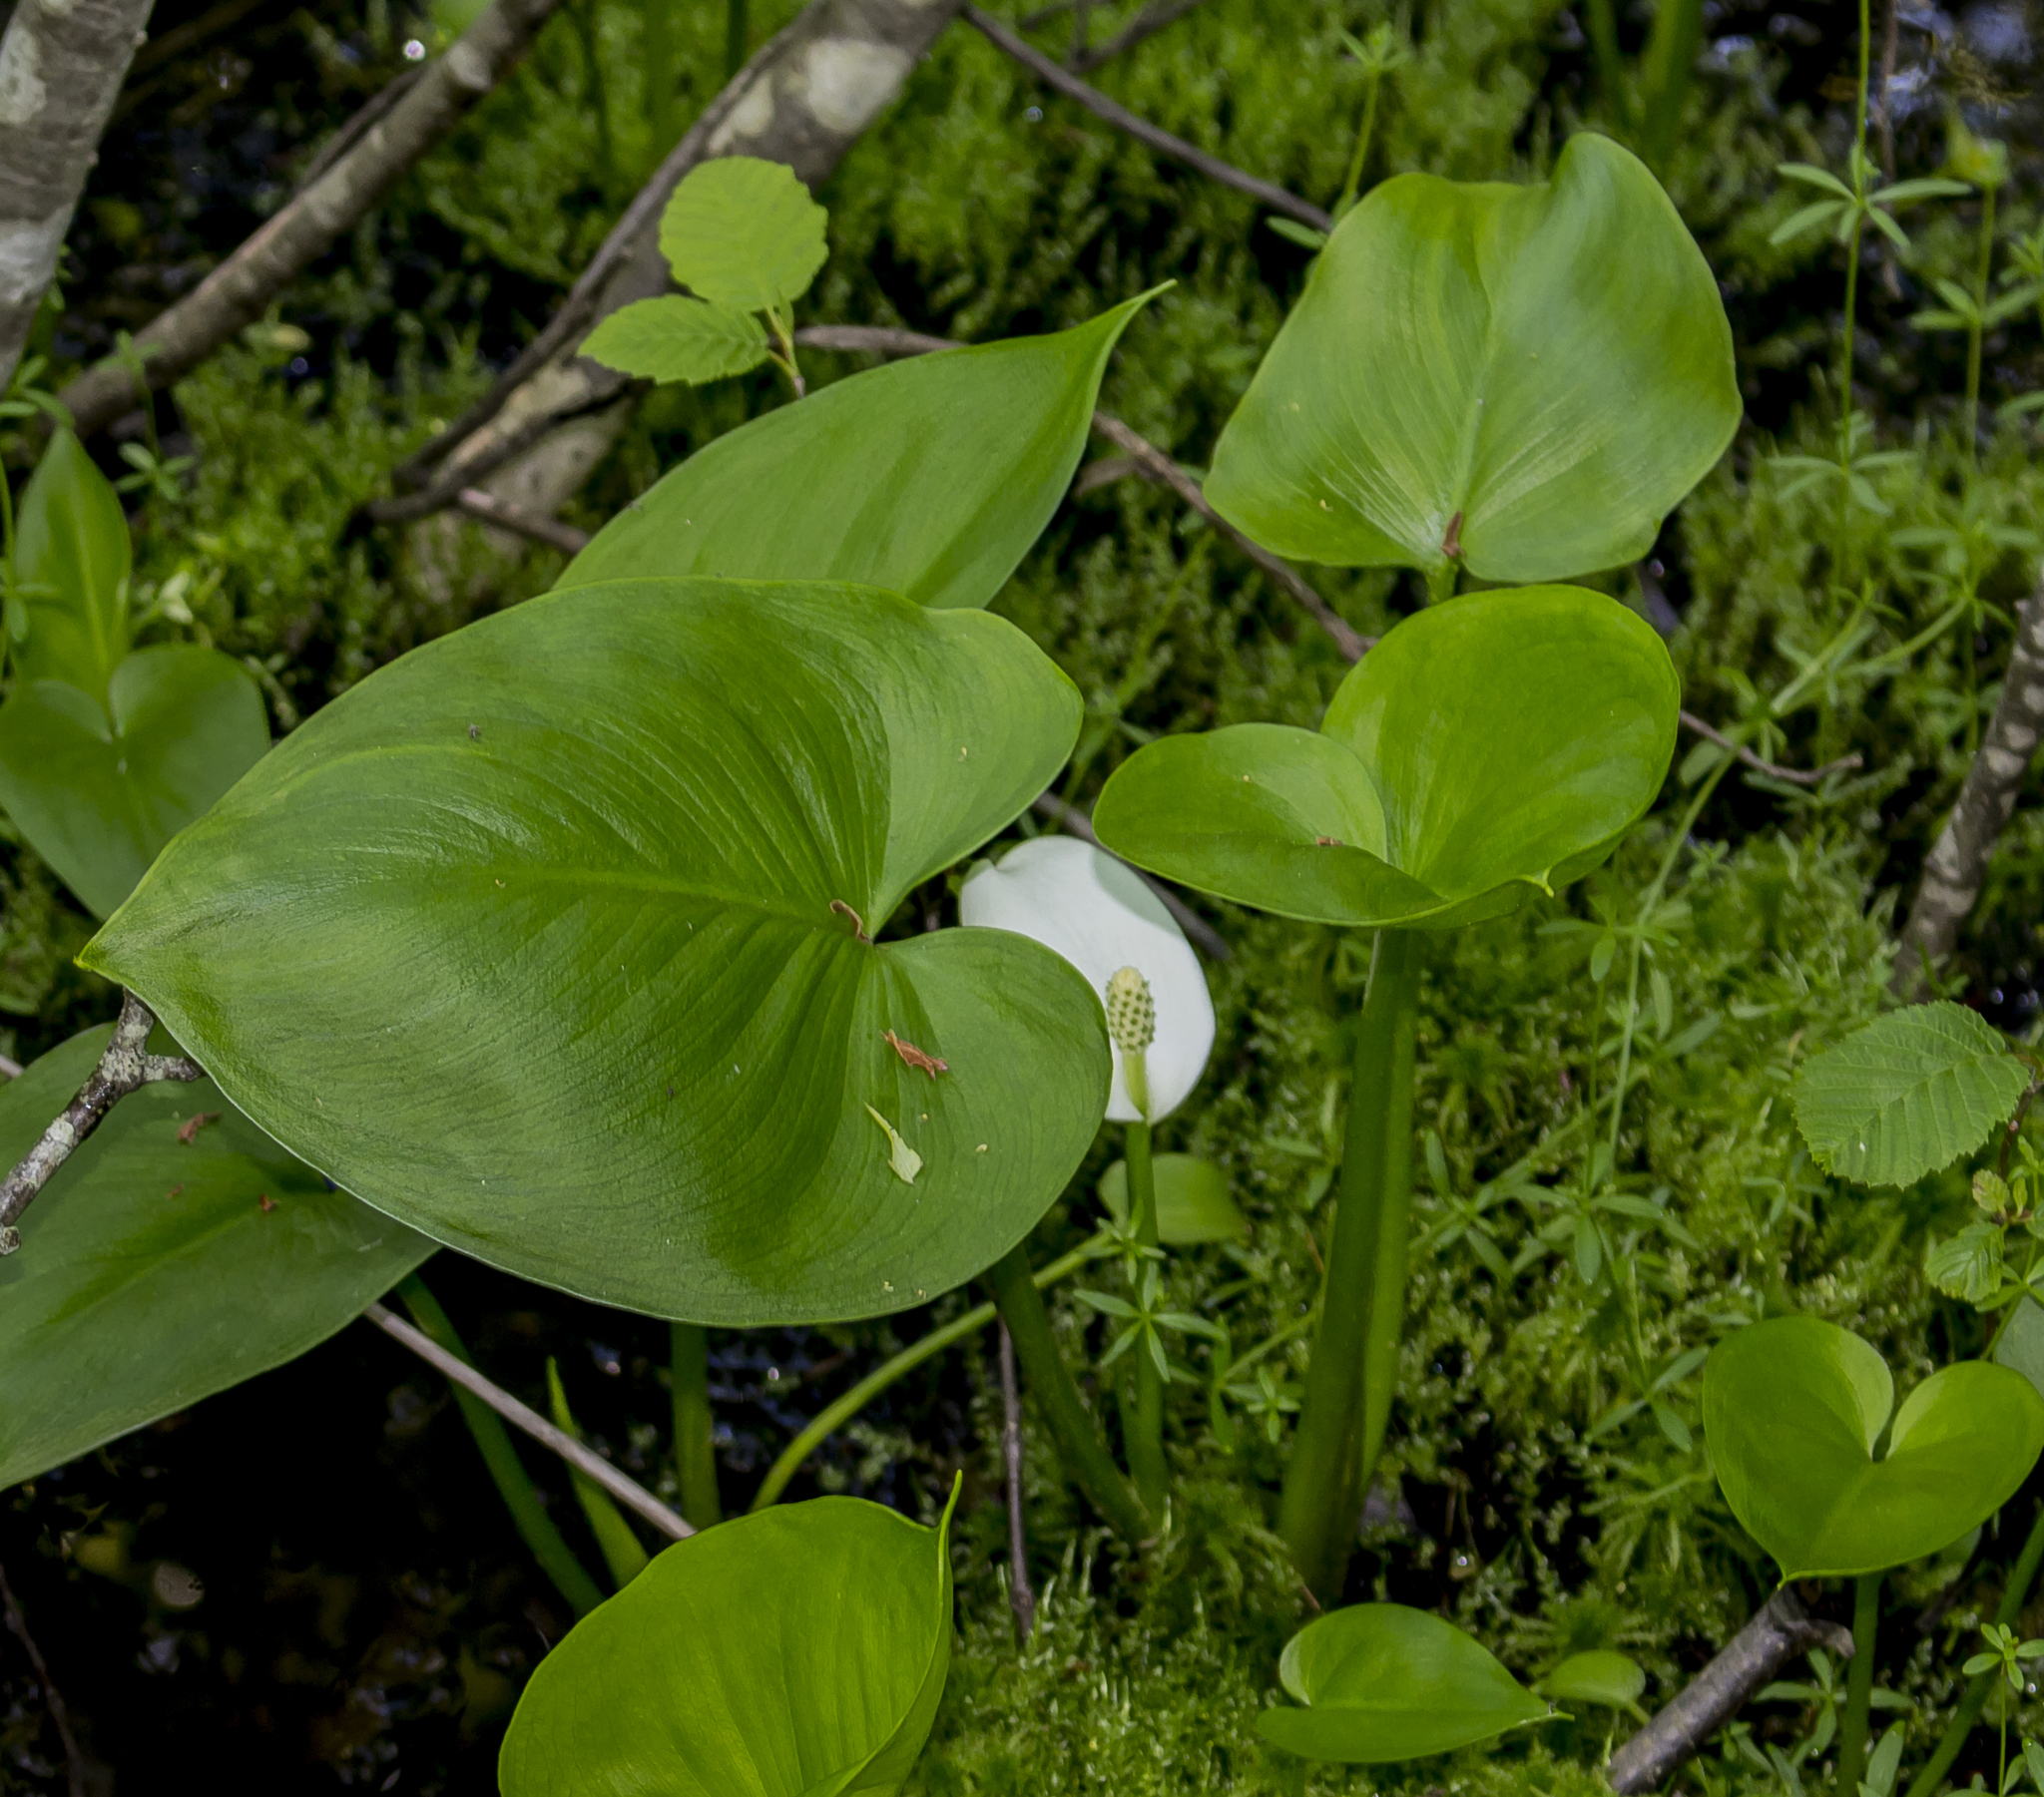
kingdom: Plantae
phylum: Tracheophyta
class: Liliopsida
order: Alismatales
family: Araceae
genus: Calla
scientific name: Calla palustris
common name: Bog arum
